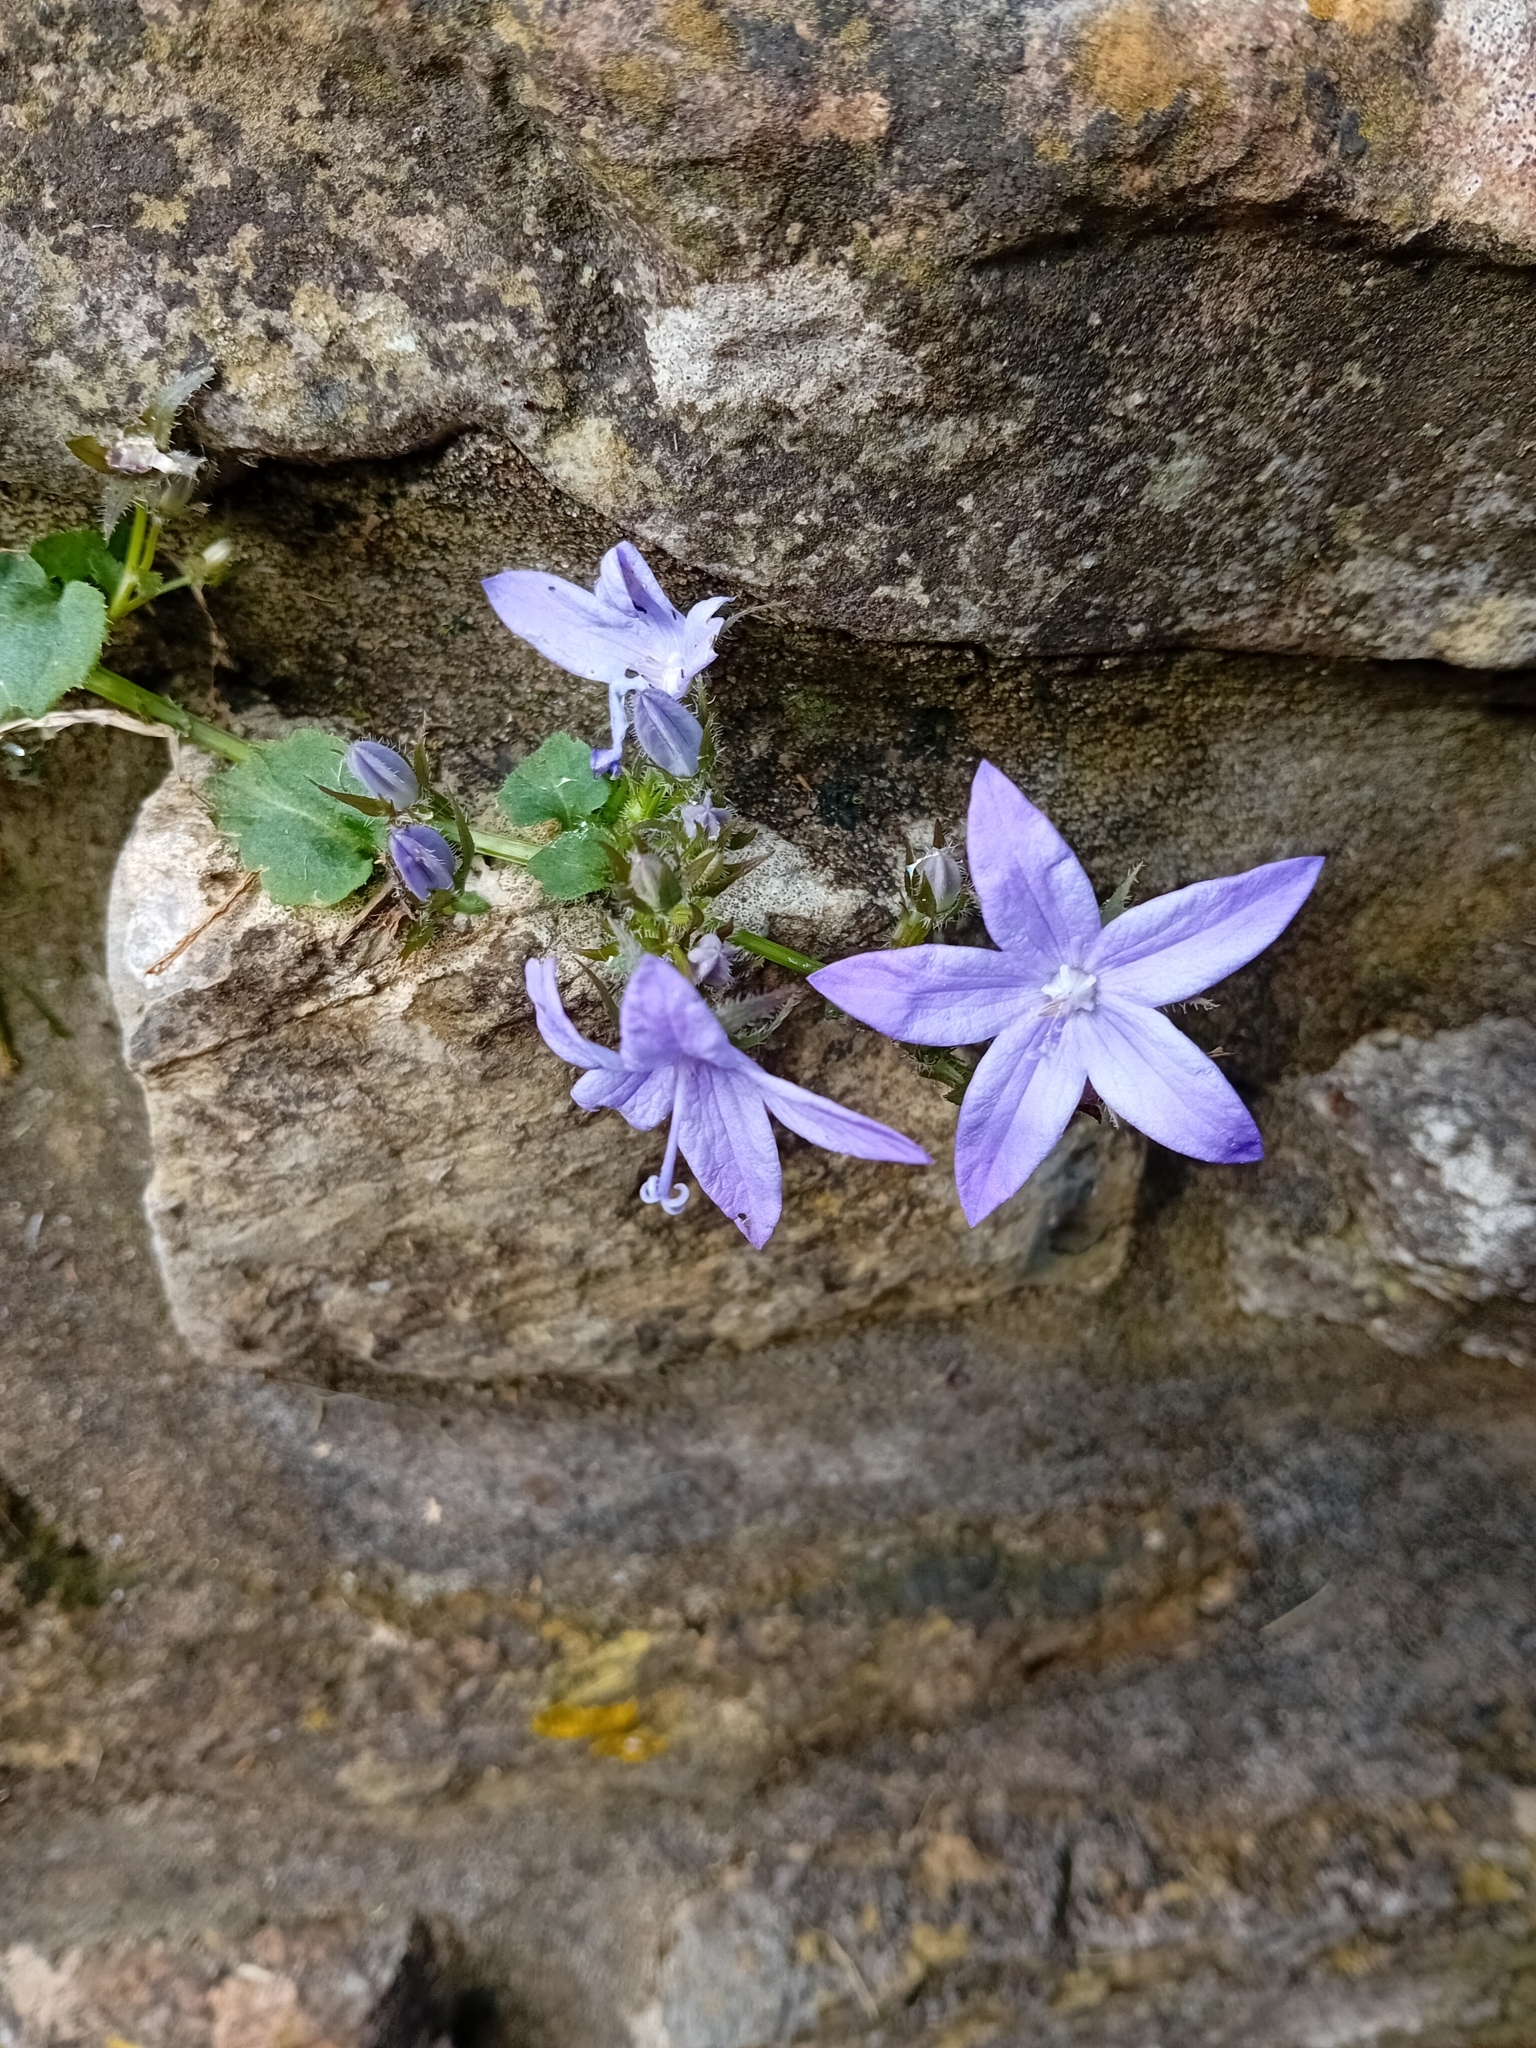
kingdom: Plantae
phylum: Tracheophyta
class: Magnoliopsida
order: Asterales
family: Campanulaceae
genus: Campanula
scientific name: Campanula poscharskyana
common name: Trailing bellflower
